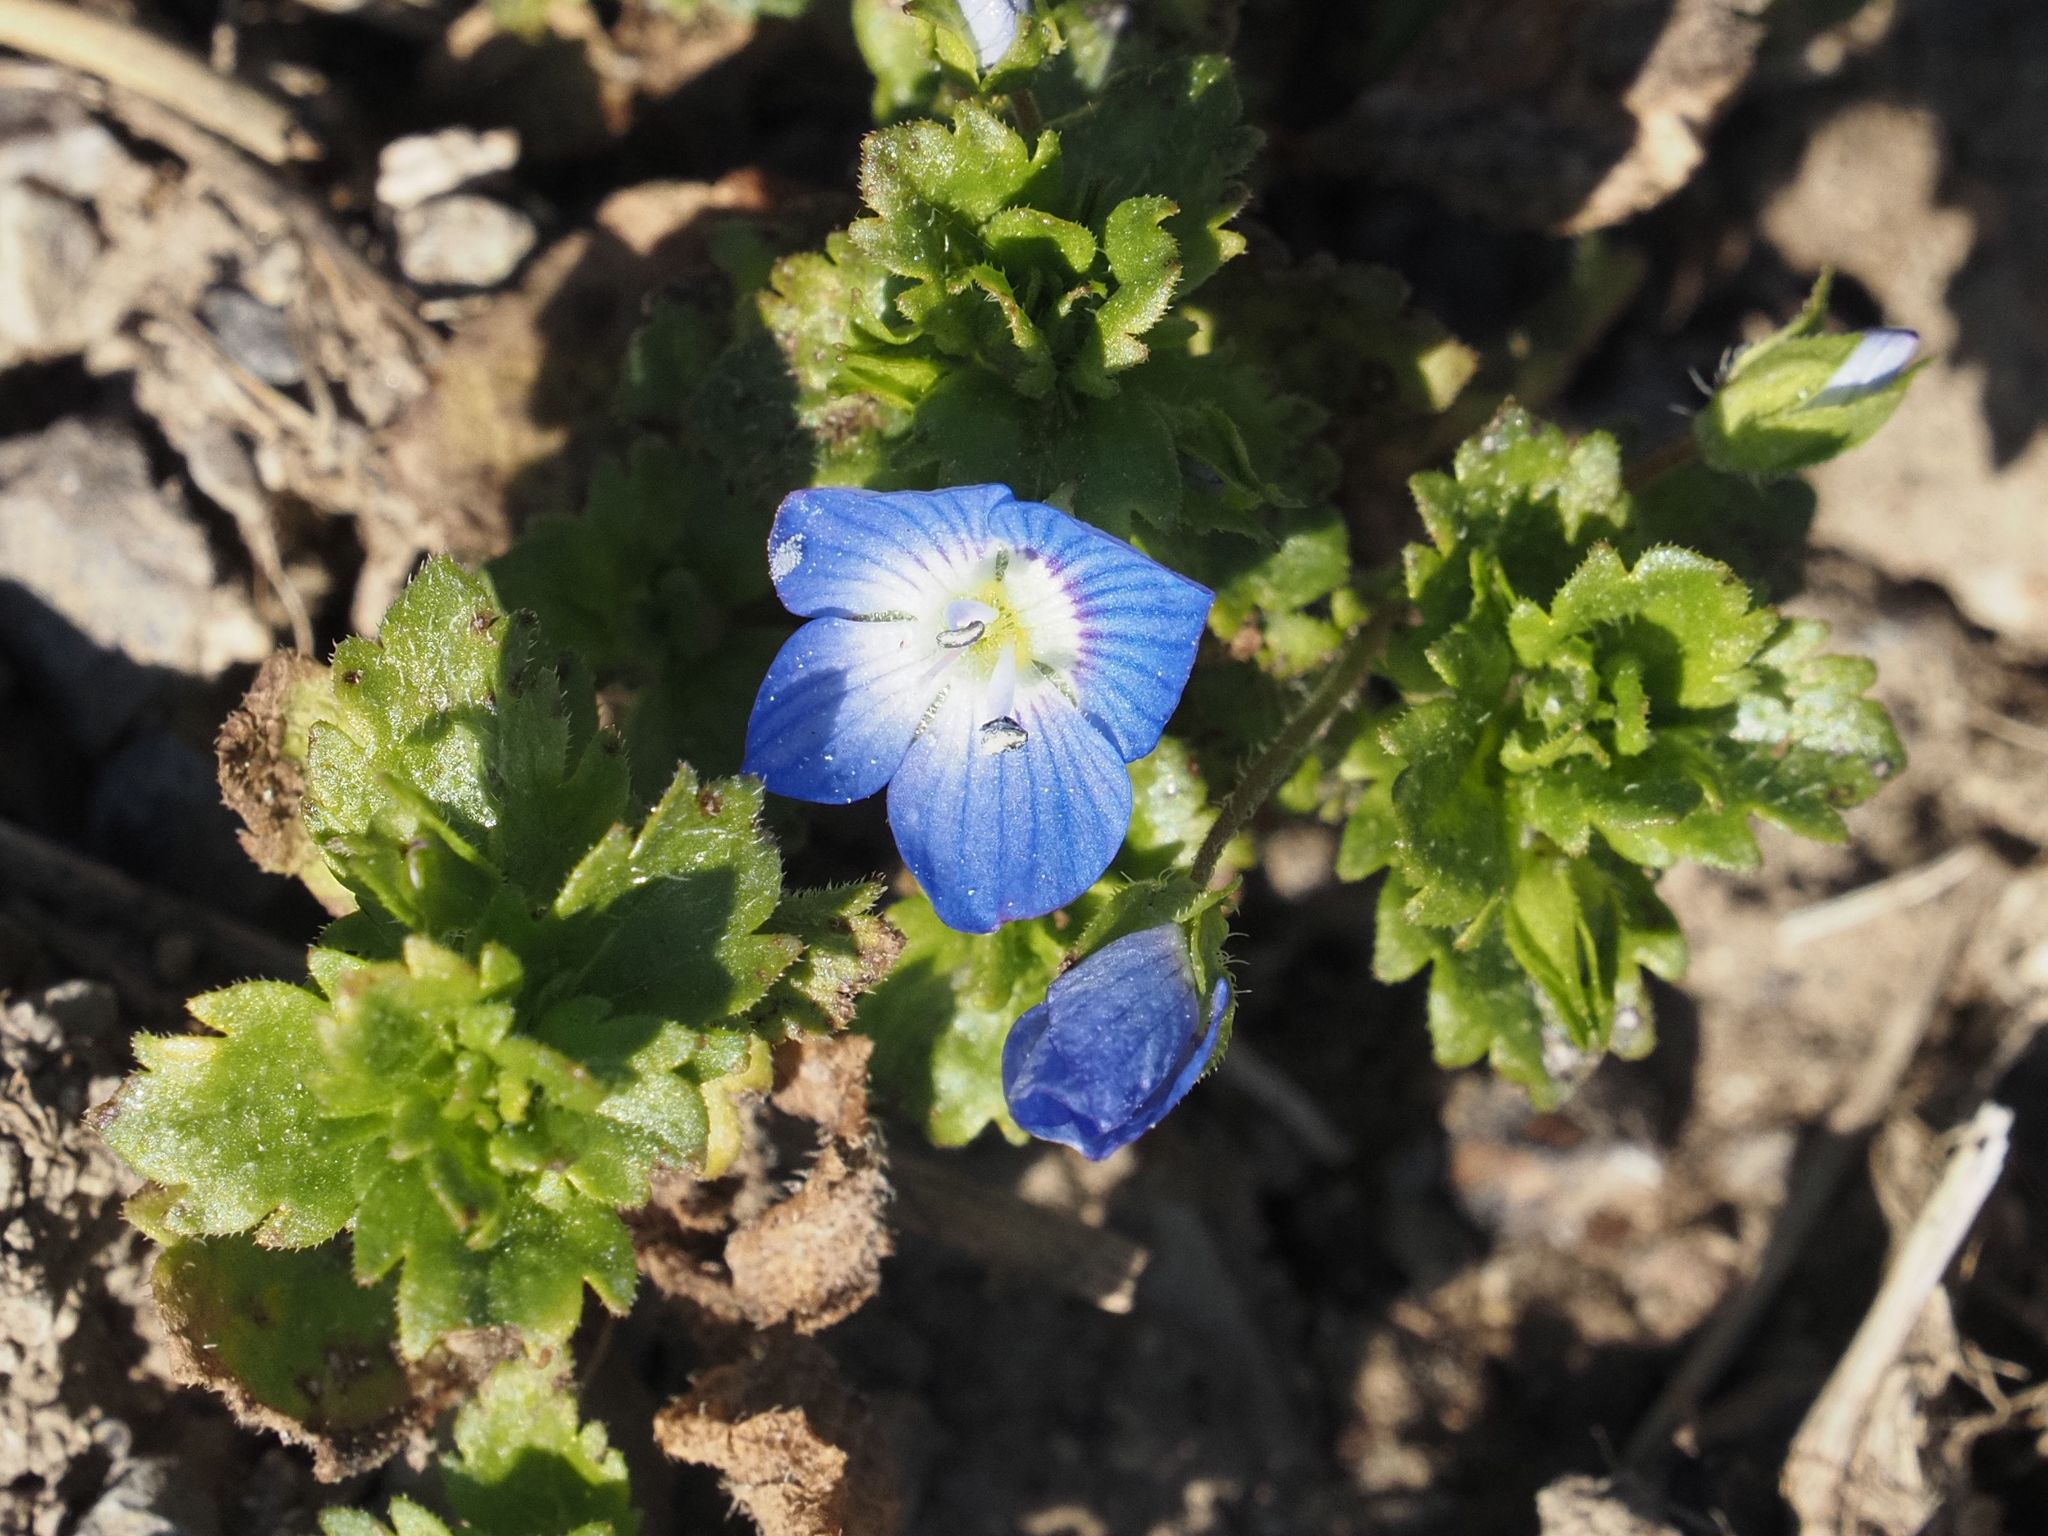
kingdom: Plantae
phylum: Tracheophyta
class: Magnoliopsida
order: Lamiales
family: Plantaginaceae
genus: Veronica
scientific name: Veronica persica
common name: Common field-speedwell
